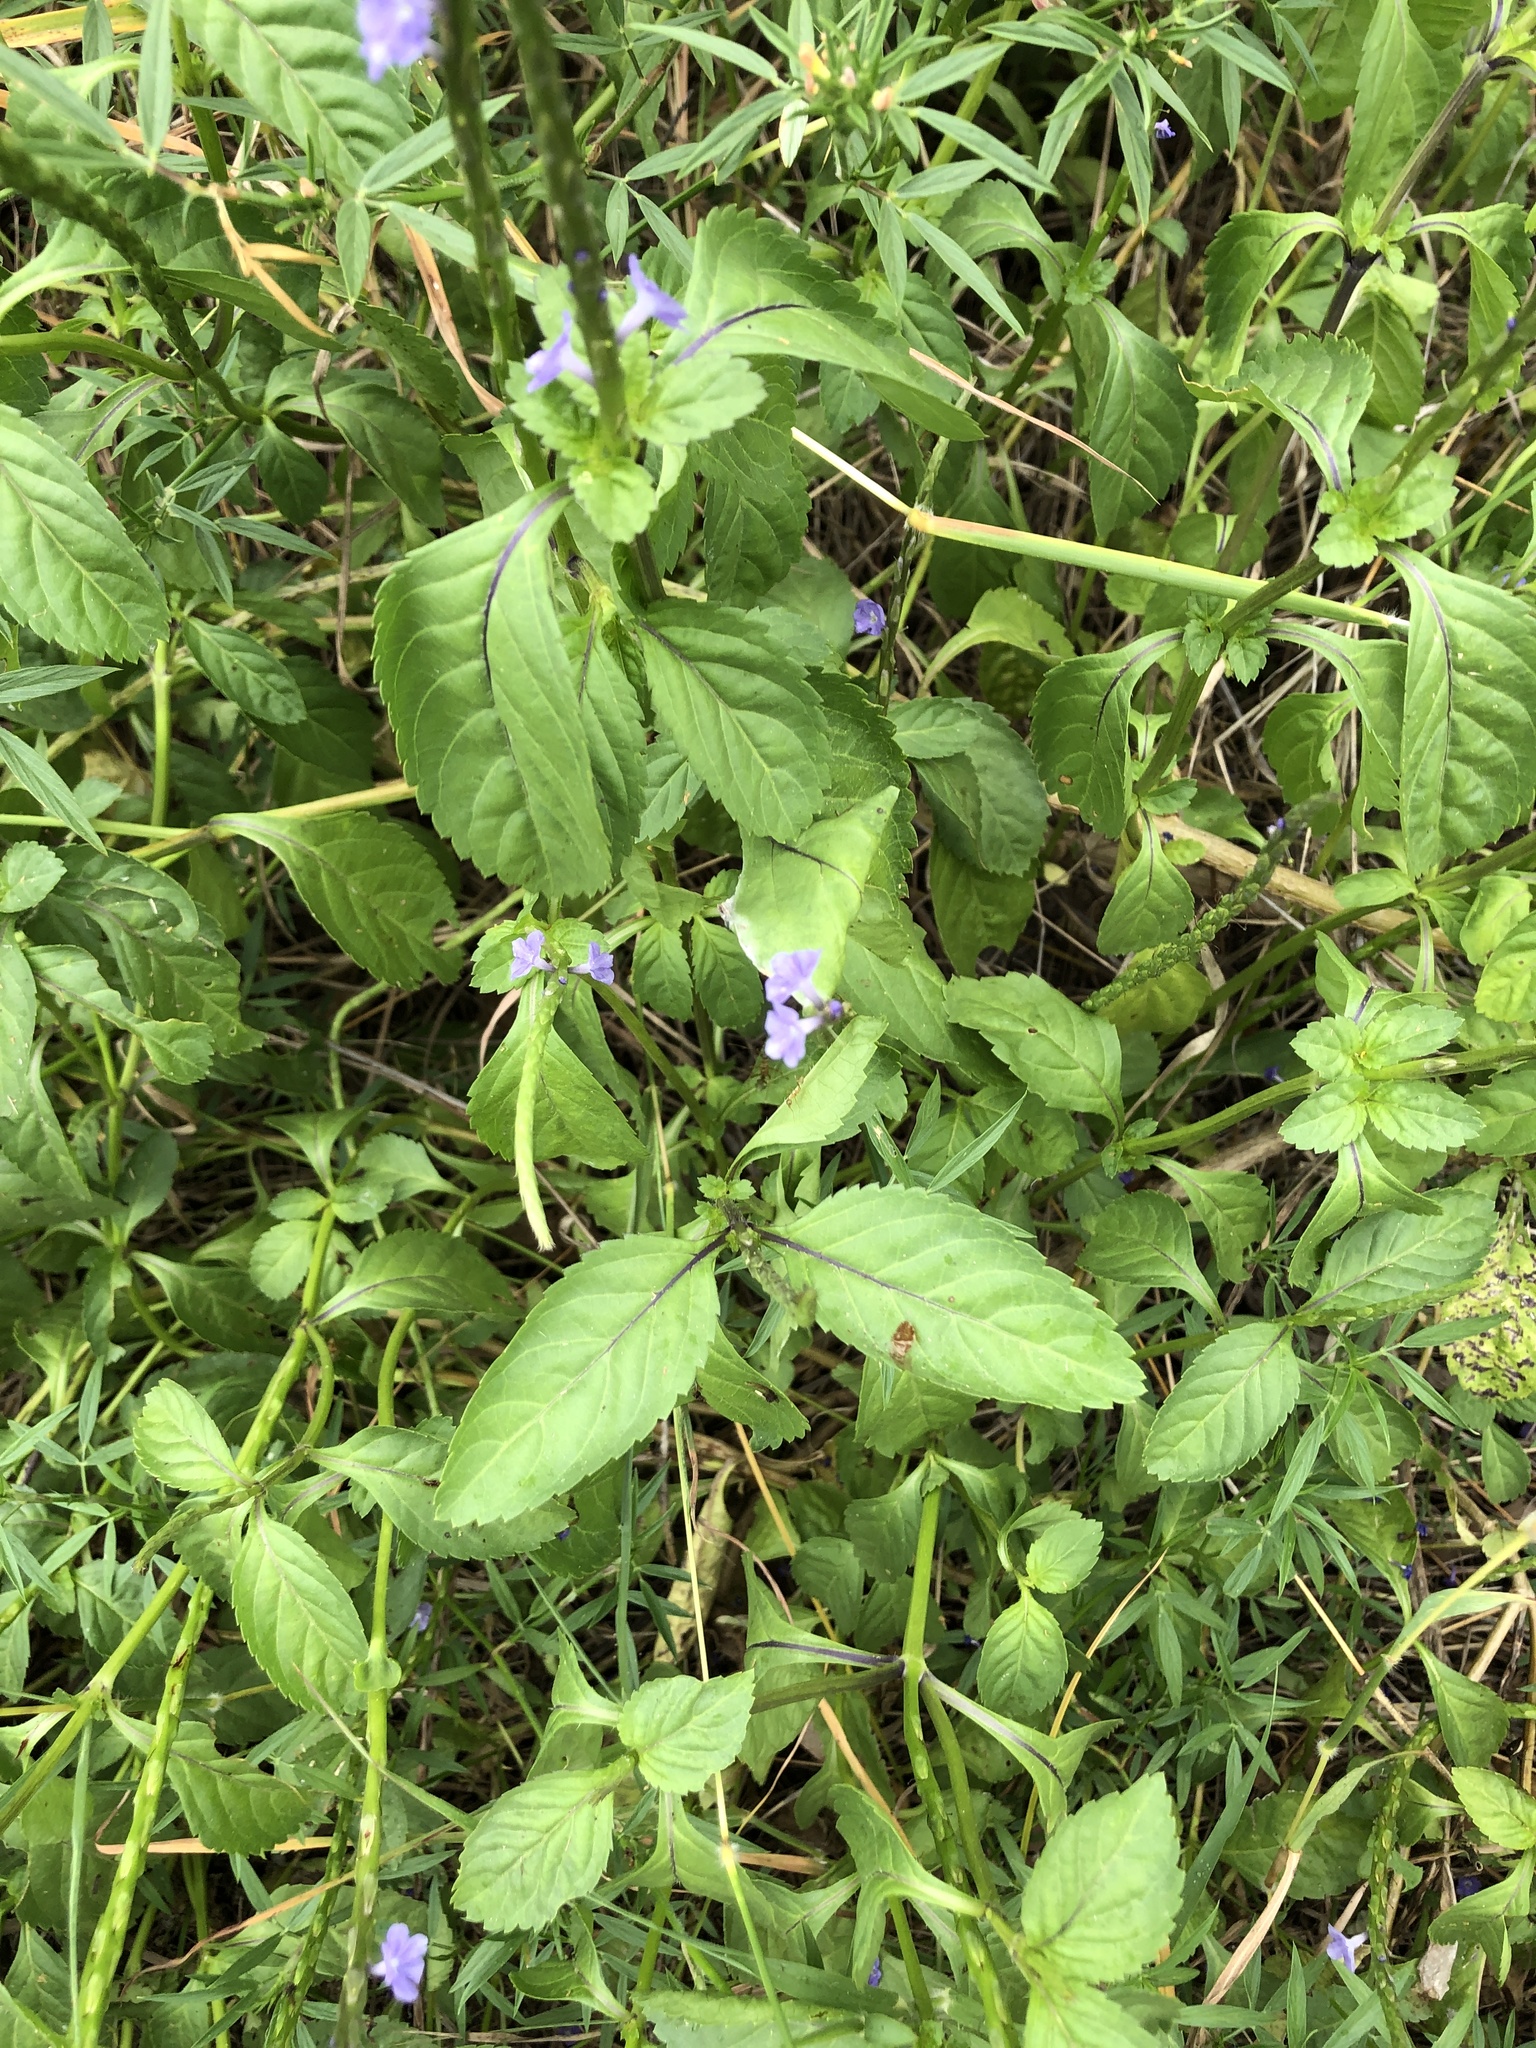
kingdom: Plantae
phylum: Tracheophyta
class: Magnoliopsida
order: Lamiales
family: Verbenaceae
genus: Stachytarpheta
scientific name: Stachytarpheta jamaicensis
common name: Light-blue snakeweed
